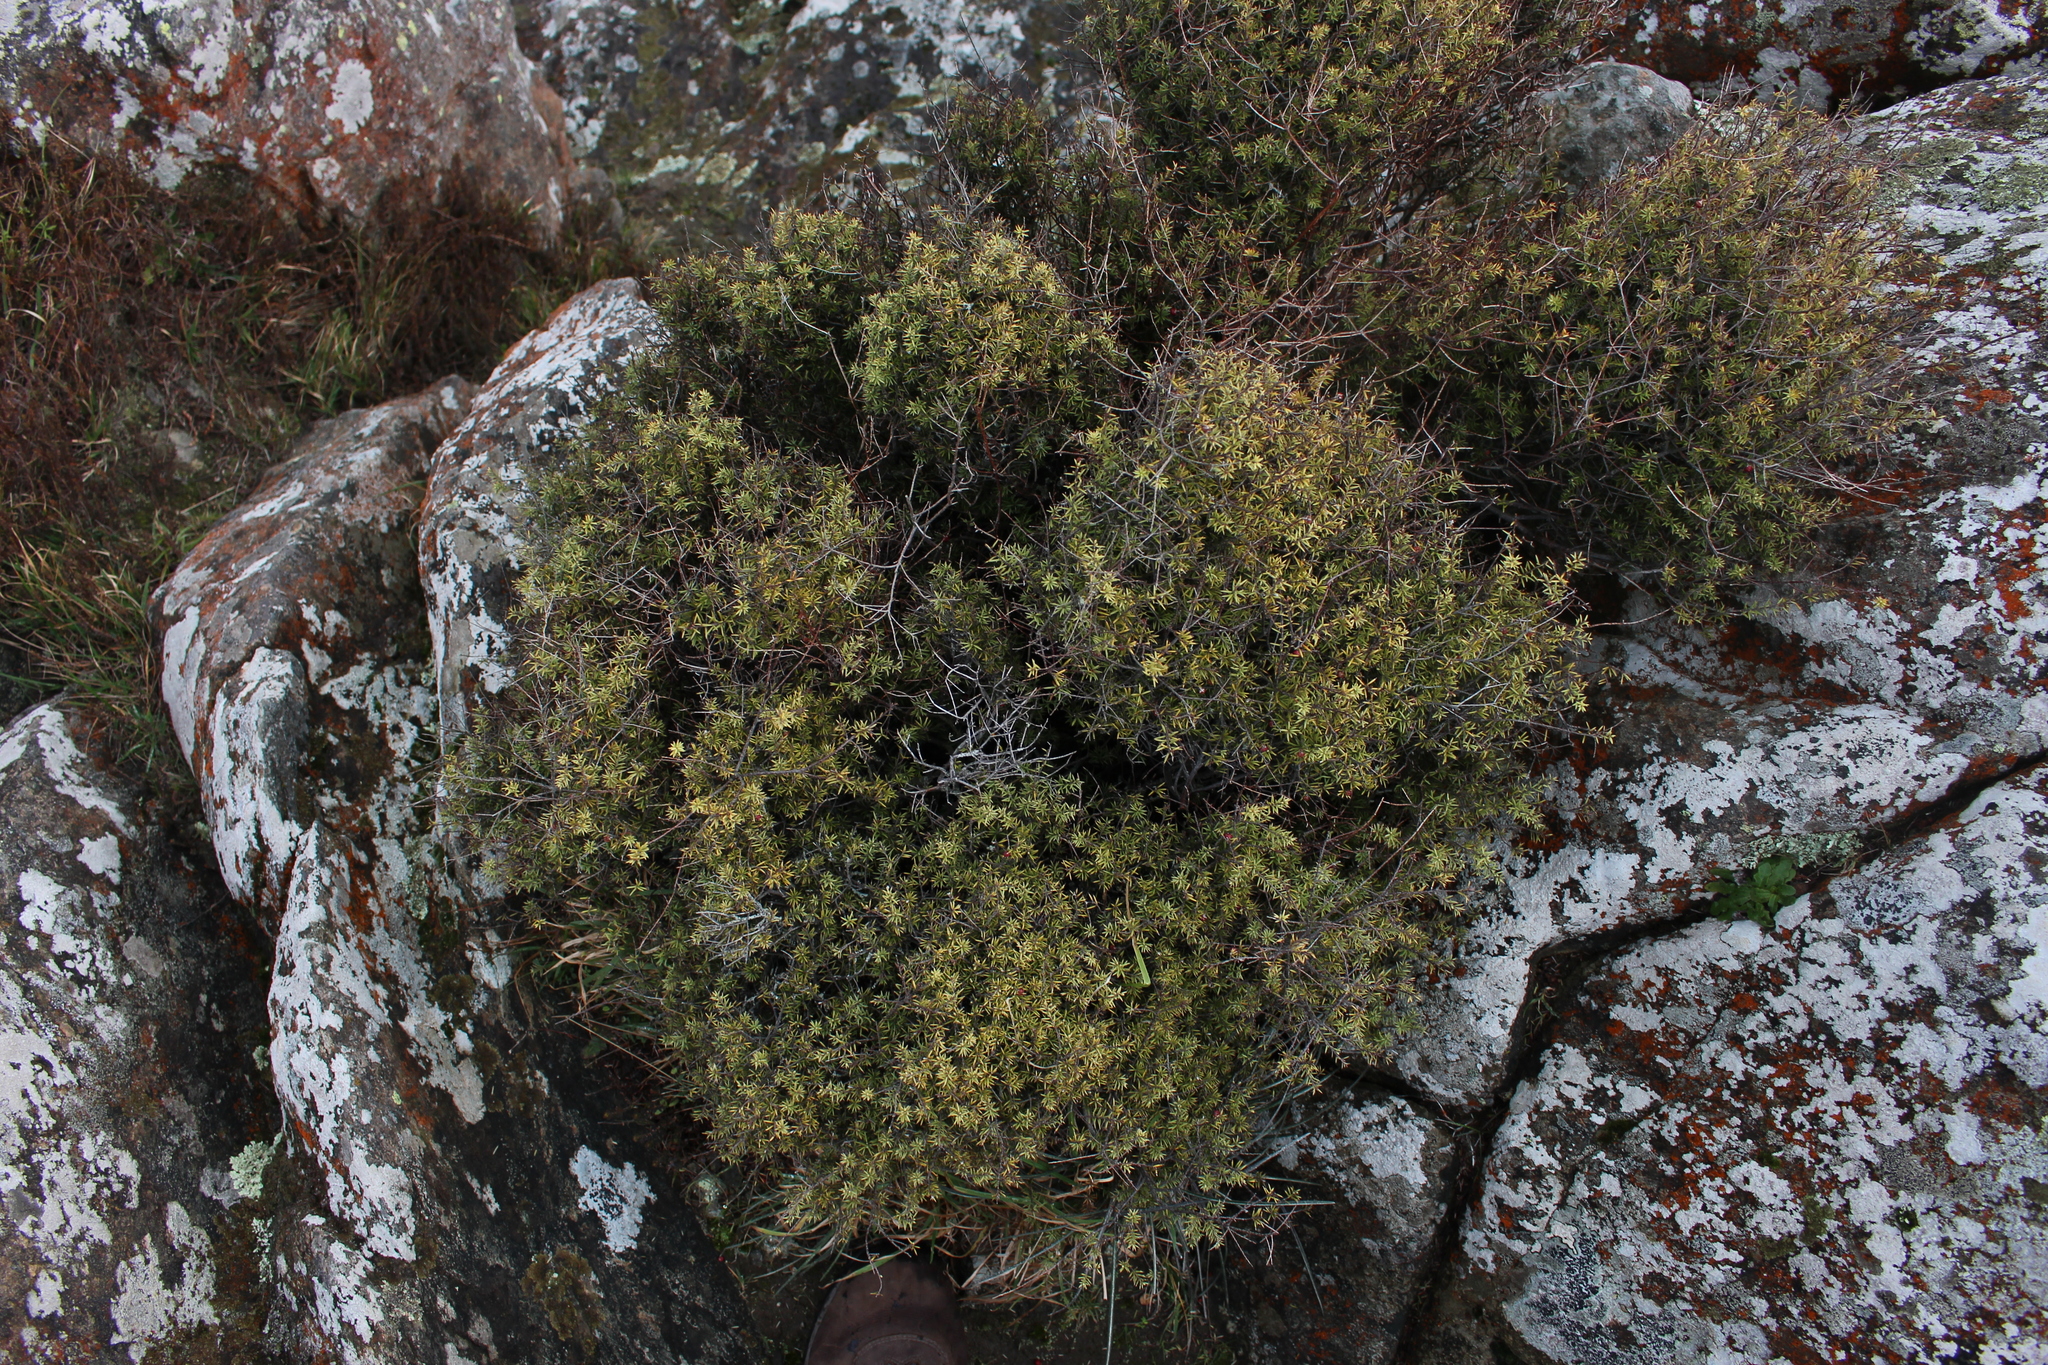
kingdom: Plantae
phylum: Tracheophyta
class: Magnoliopsida
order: Ericales
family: Ericaceae
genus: Leptecophylla
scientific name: Leptecophylla juniperina
